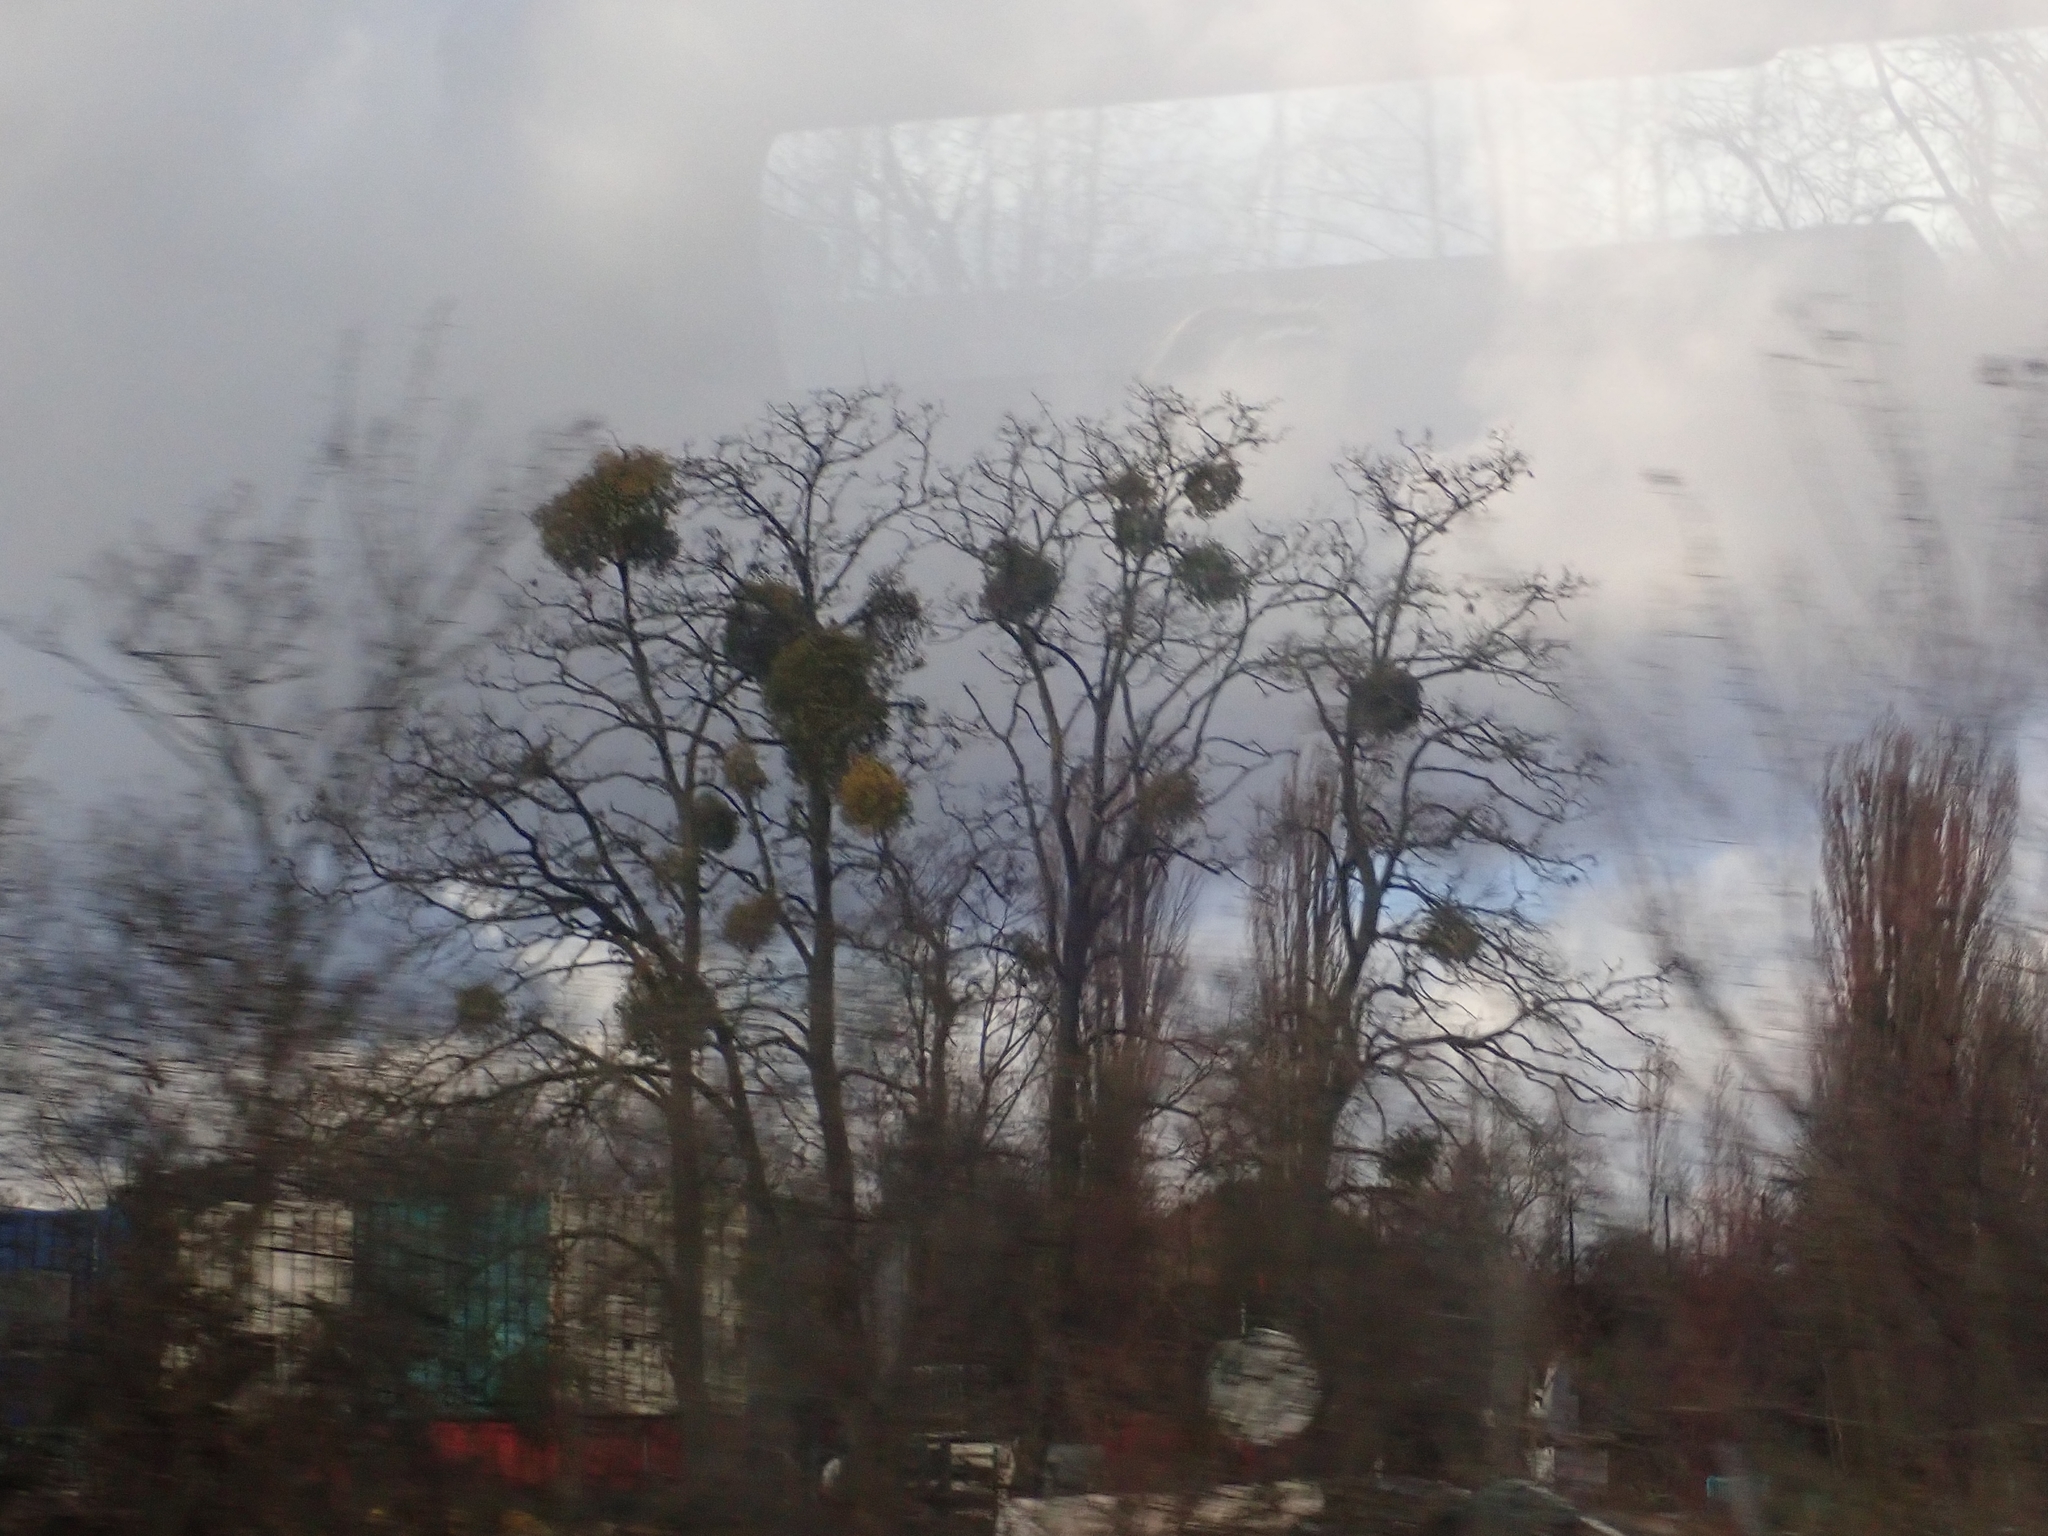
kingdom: Plantae
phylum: Tracheophyta
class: Magnoliopsida
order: Santalales
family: Viscaceae
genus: Viscum
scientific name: Viscum album
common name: Mistletoe
